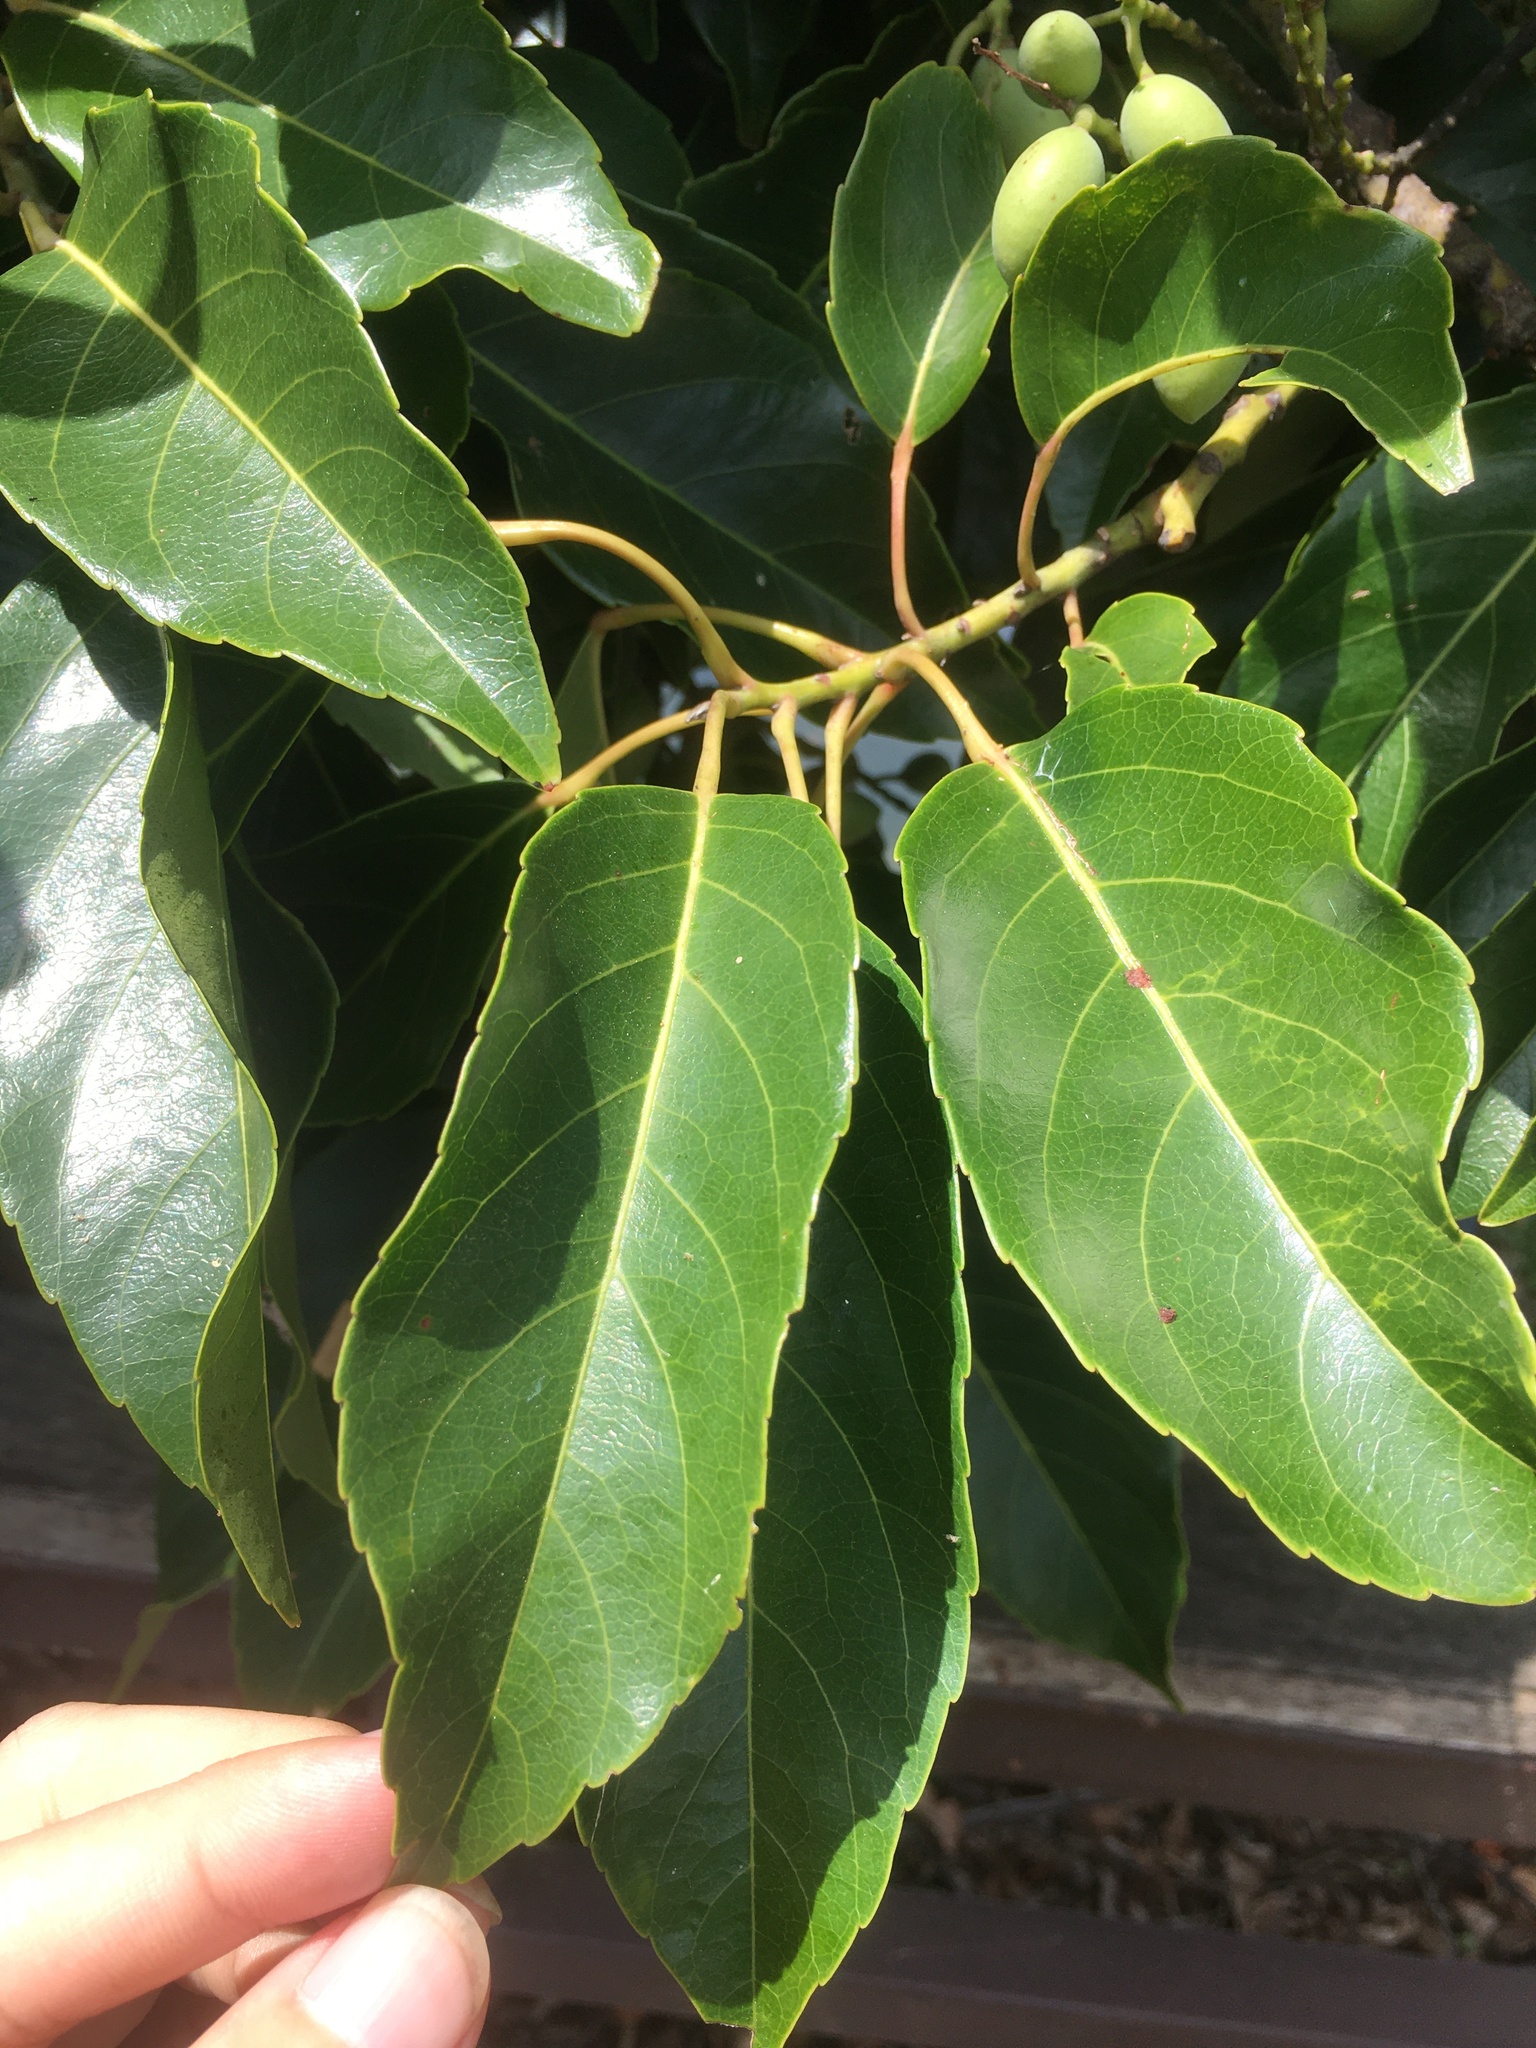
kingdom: Plantae
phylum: Tracheophyta
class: Magnoliopsida
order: Oxalidales
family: Elaeocarpaceae
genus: Elaeocarpus
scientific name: Elaeocarpus serratus
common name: Ceylon-olive
